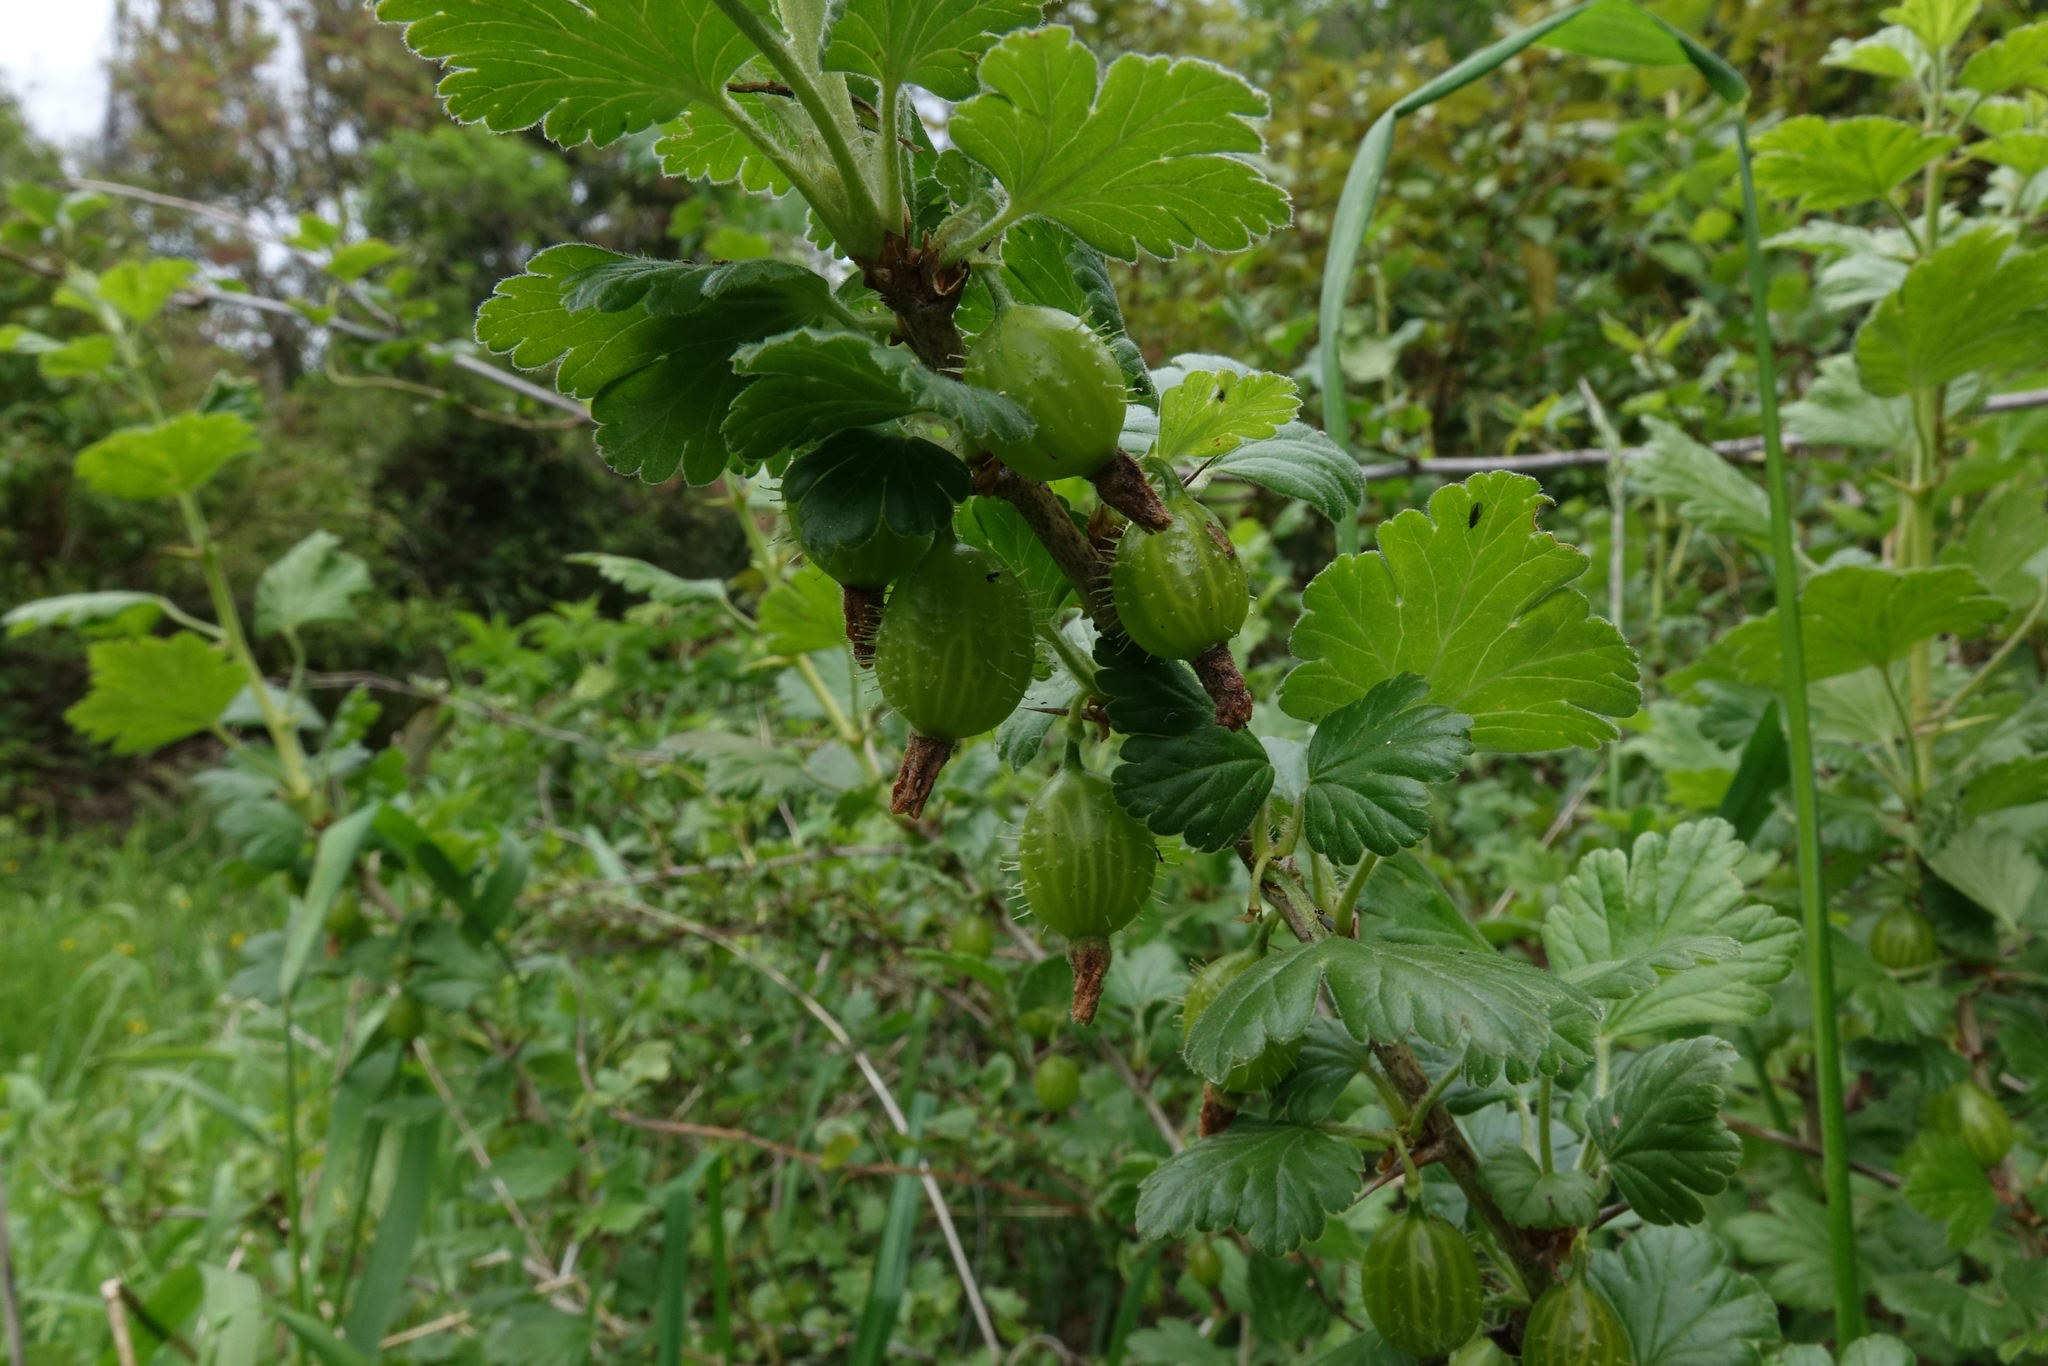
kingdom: Plantae
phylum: Tracheophyta
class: Magnoliopsida
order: Saxifragales
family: Grossulariaceae
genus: Ribes
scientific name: Ribes uva-crispa
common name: Gooseberry
